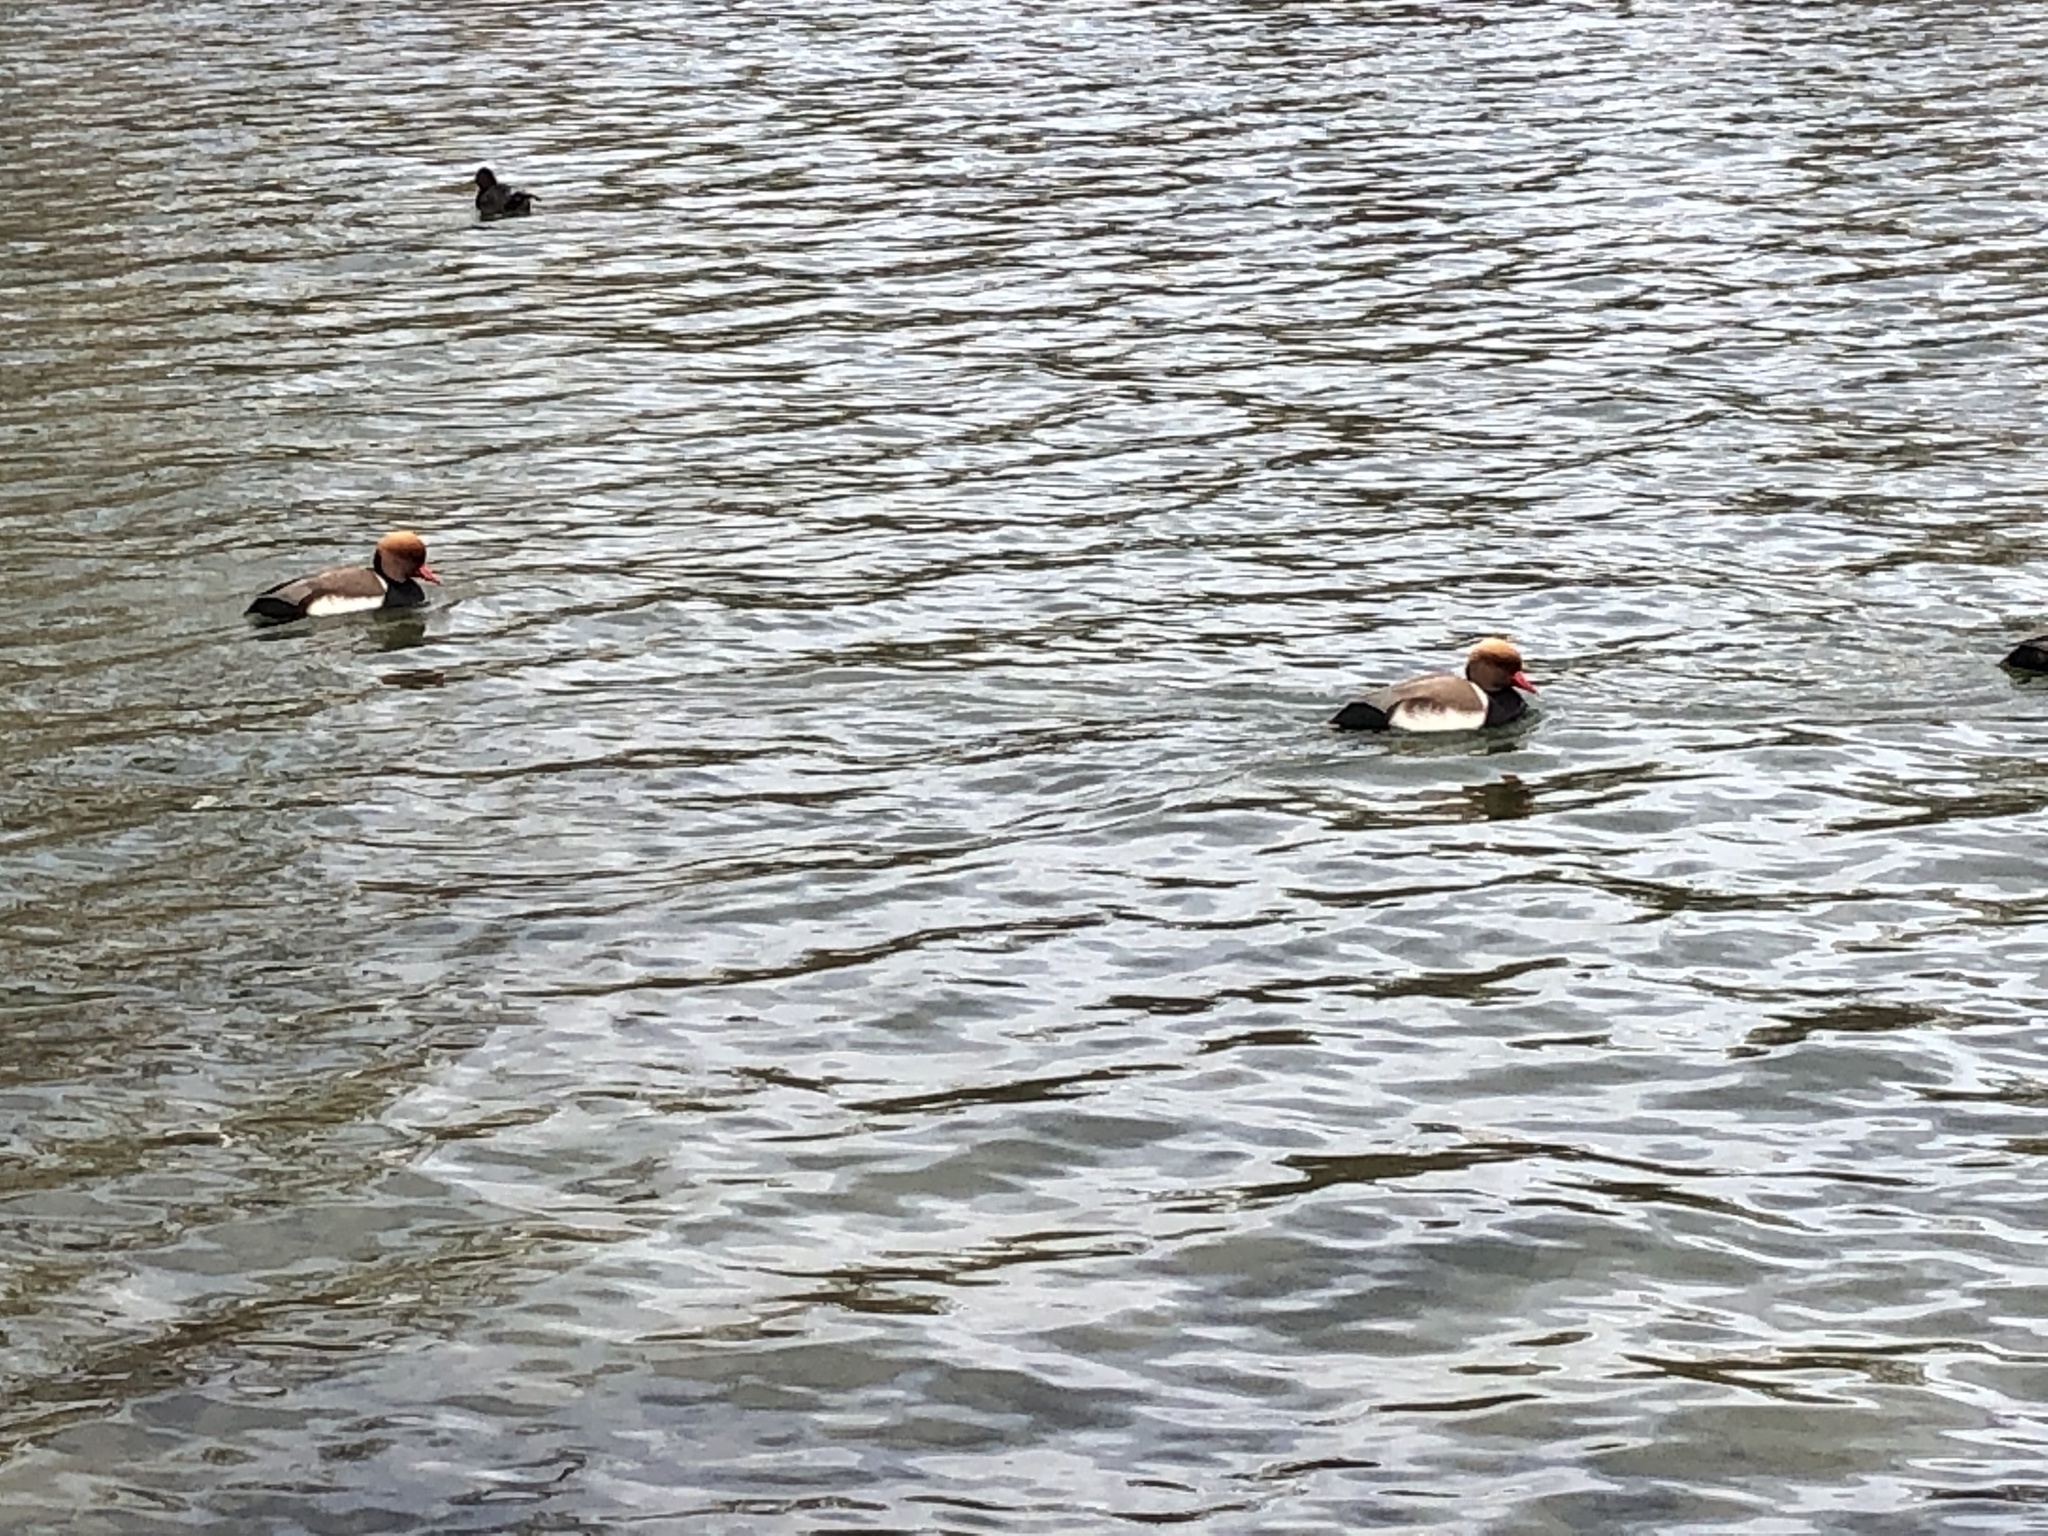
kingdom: Animalia
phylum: Chordata
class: Aves
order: Anseriformes
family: Anatidae
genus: Netta
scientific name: Netta rufina
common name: Red-crested pochard
